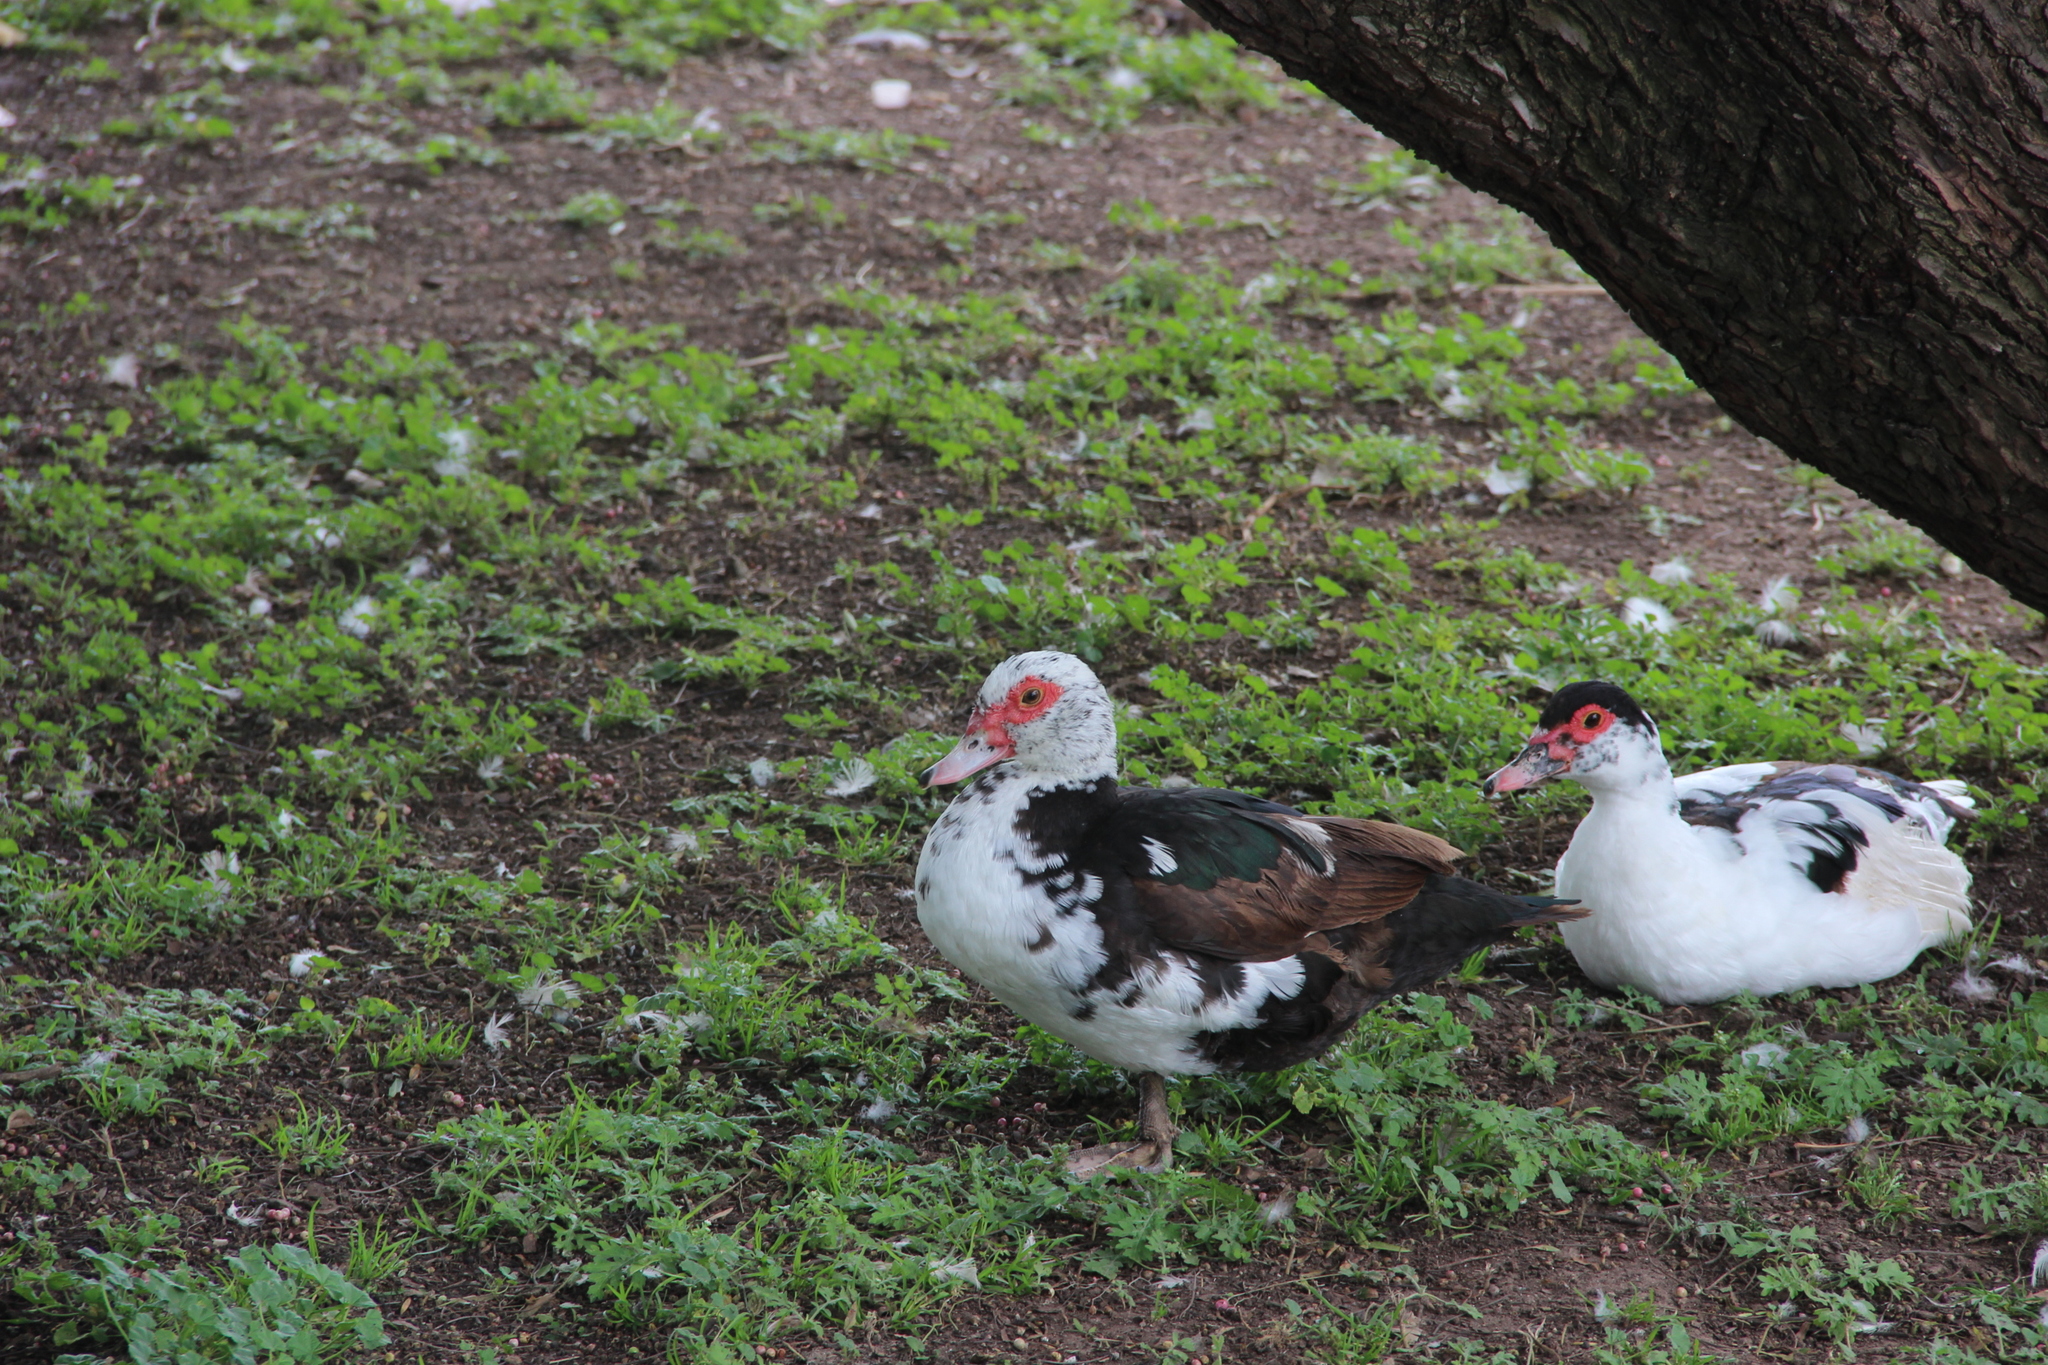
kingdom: Animalia
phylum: Chordata
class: Aves
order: Anseriformes
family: Anatidae
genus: Cairina
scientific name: Cairina moschata
